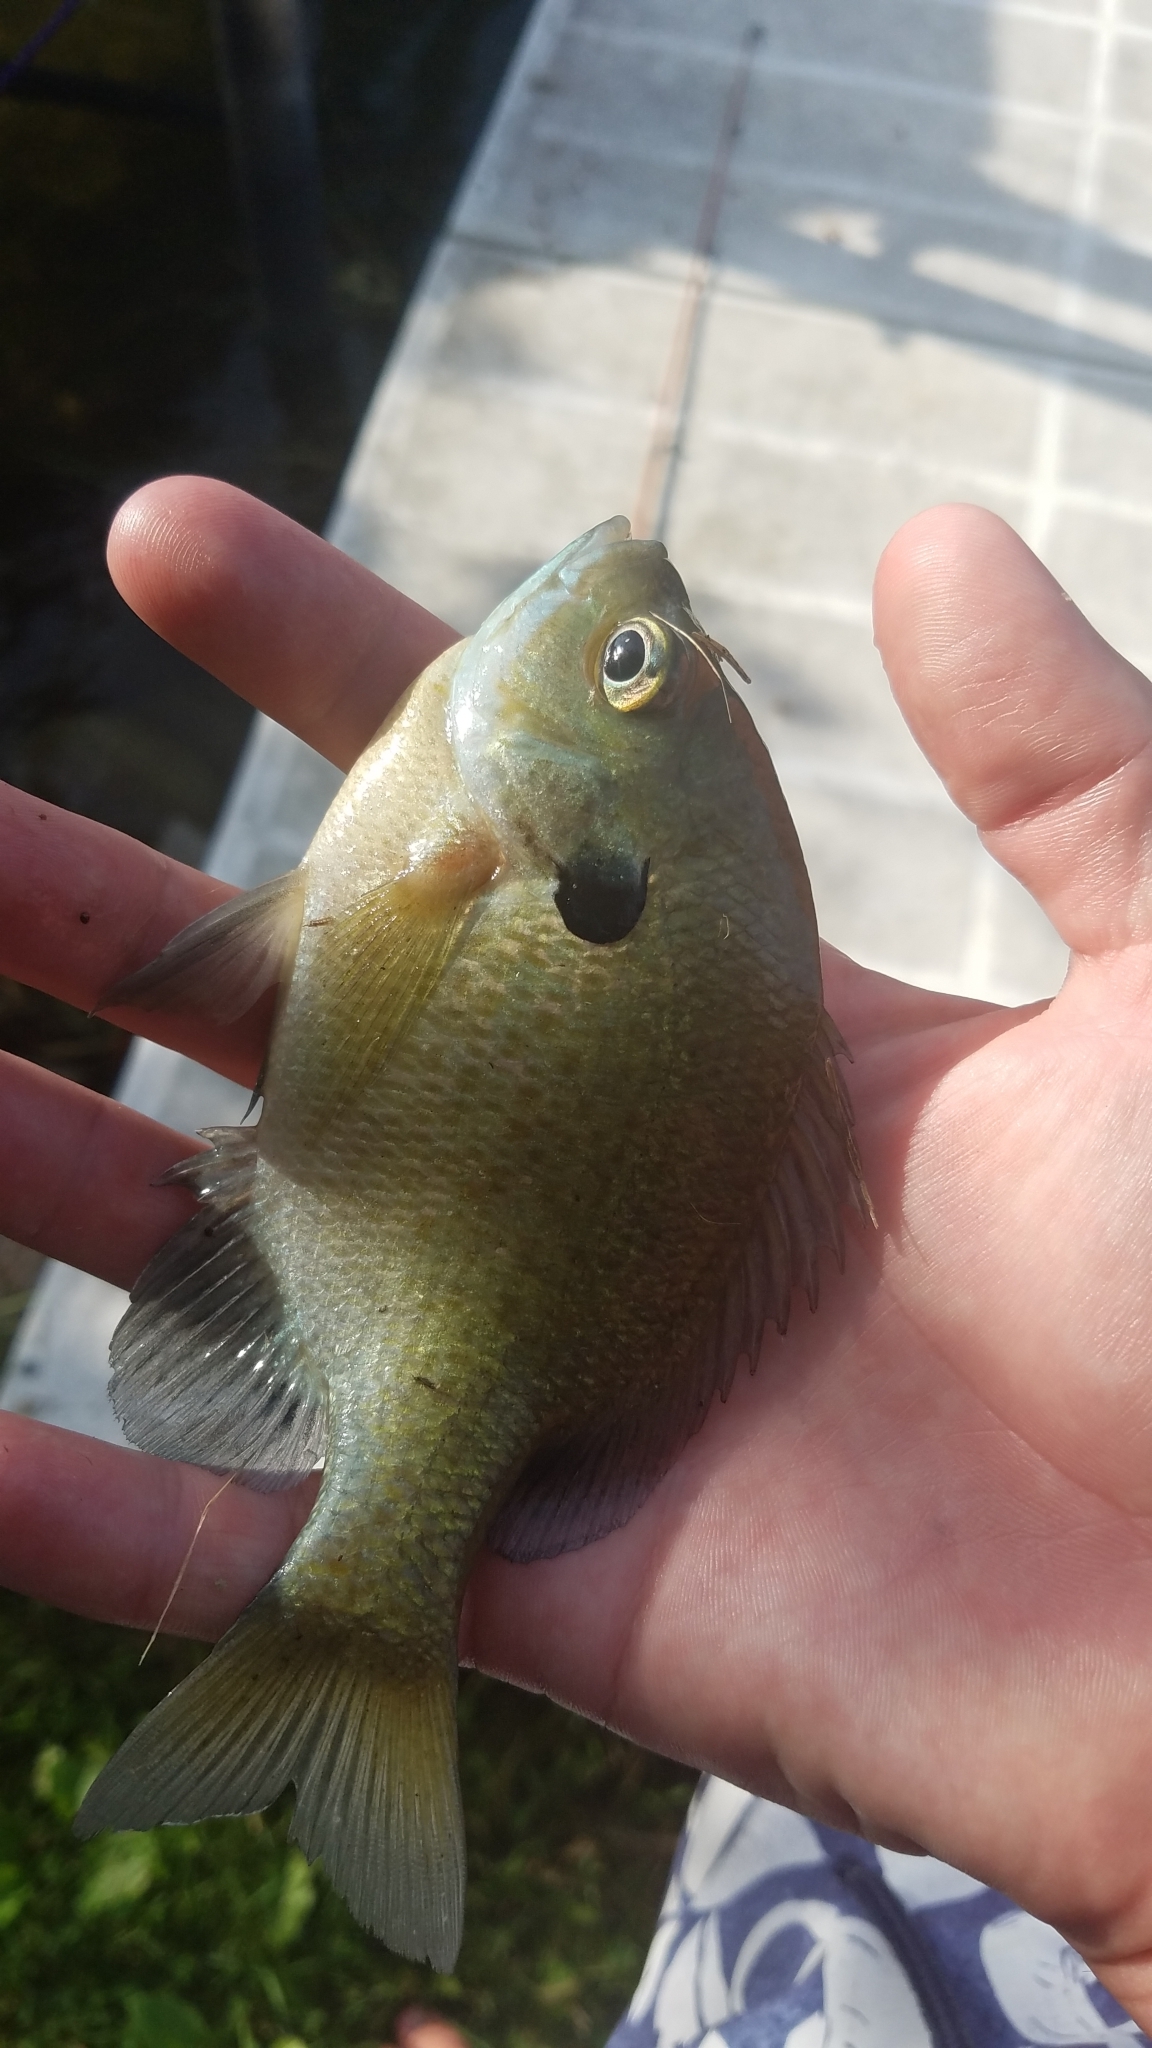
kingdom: Animalia
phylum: Chordata
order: Perciformes
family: Centrarchidae
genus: Lepomis
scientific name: Lepomis macrochirus
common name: Bluegill
